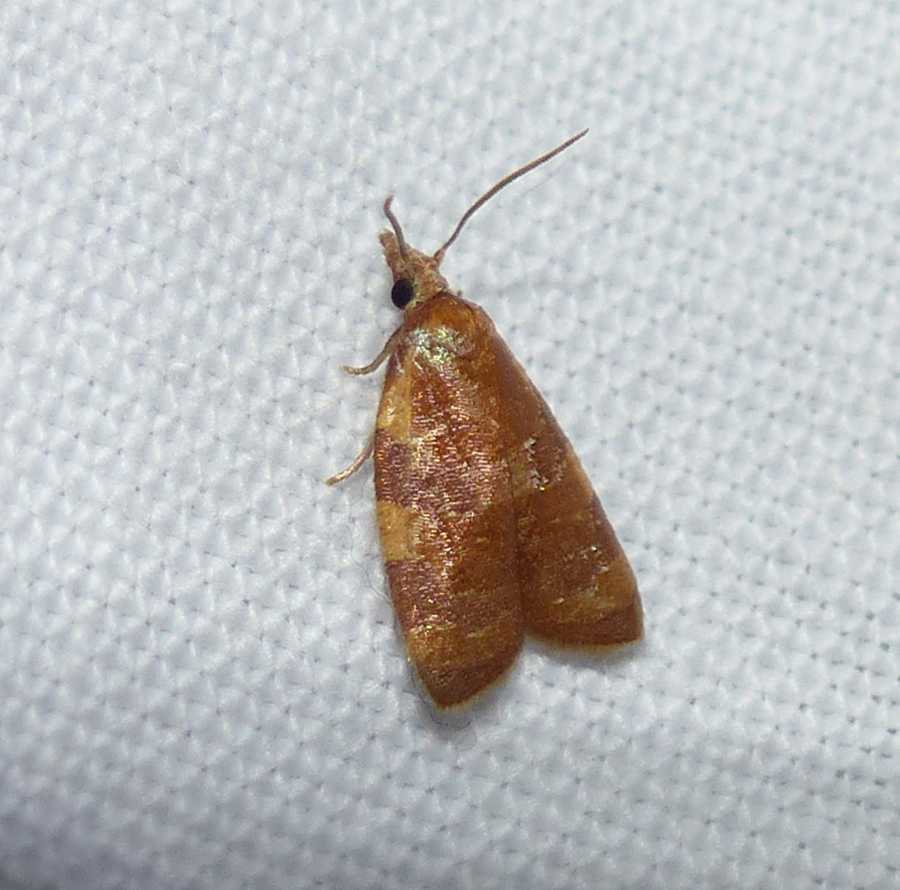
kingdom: Animalia
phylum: Arthropoda
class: Insecta
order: Lepidoptera
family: Tortricidae
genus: Cenopis
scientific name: Cenopis diluticostana
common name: Spring dead-leaf roller moth
